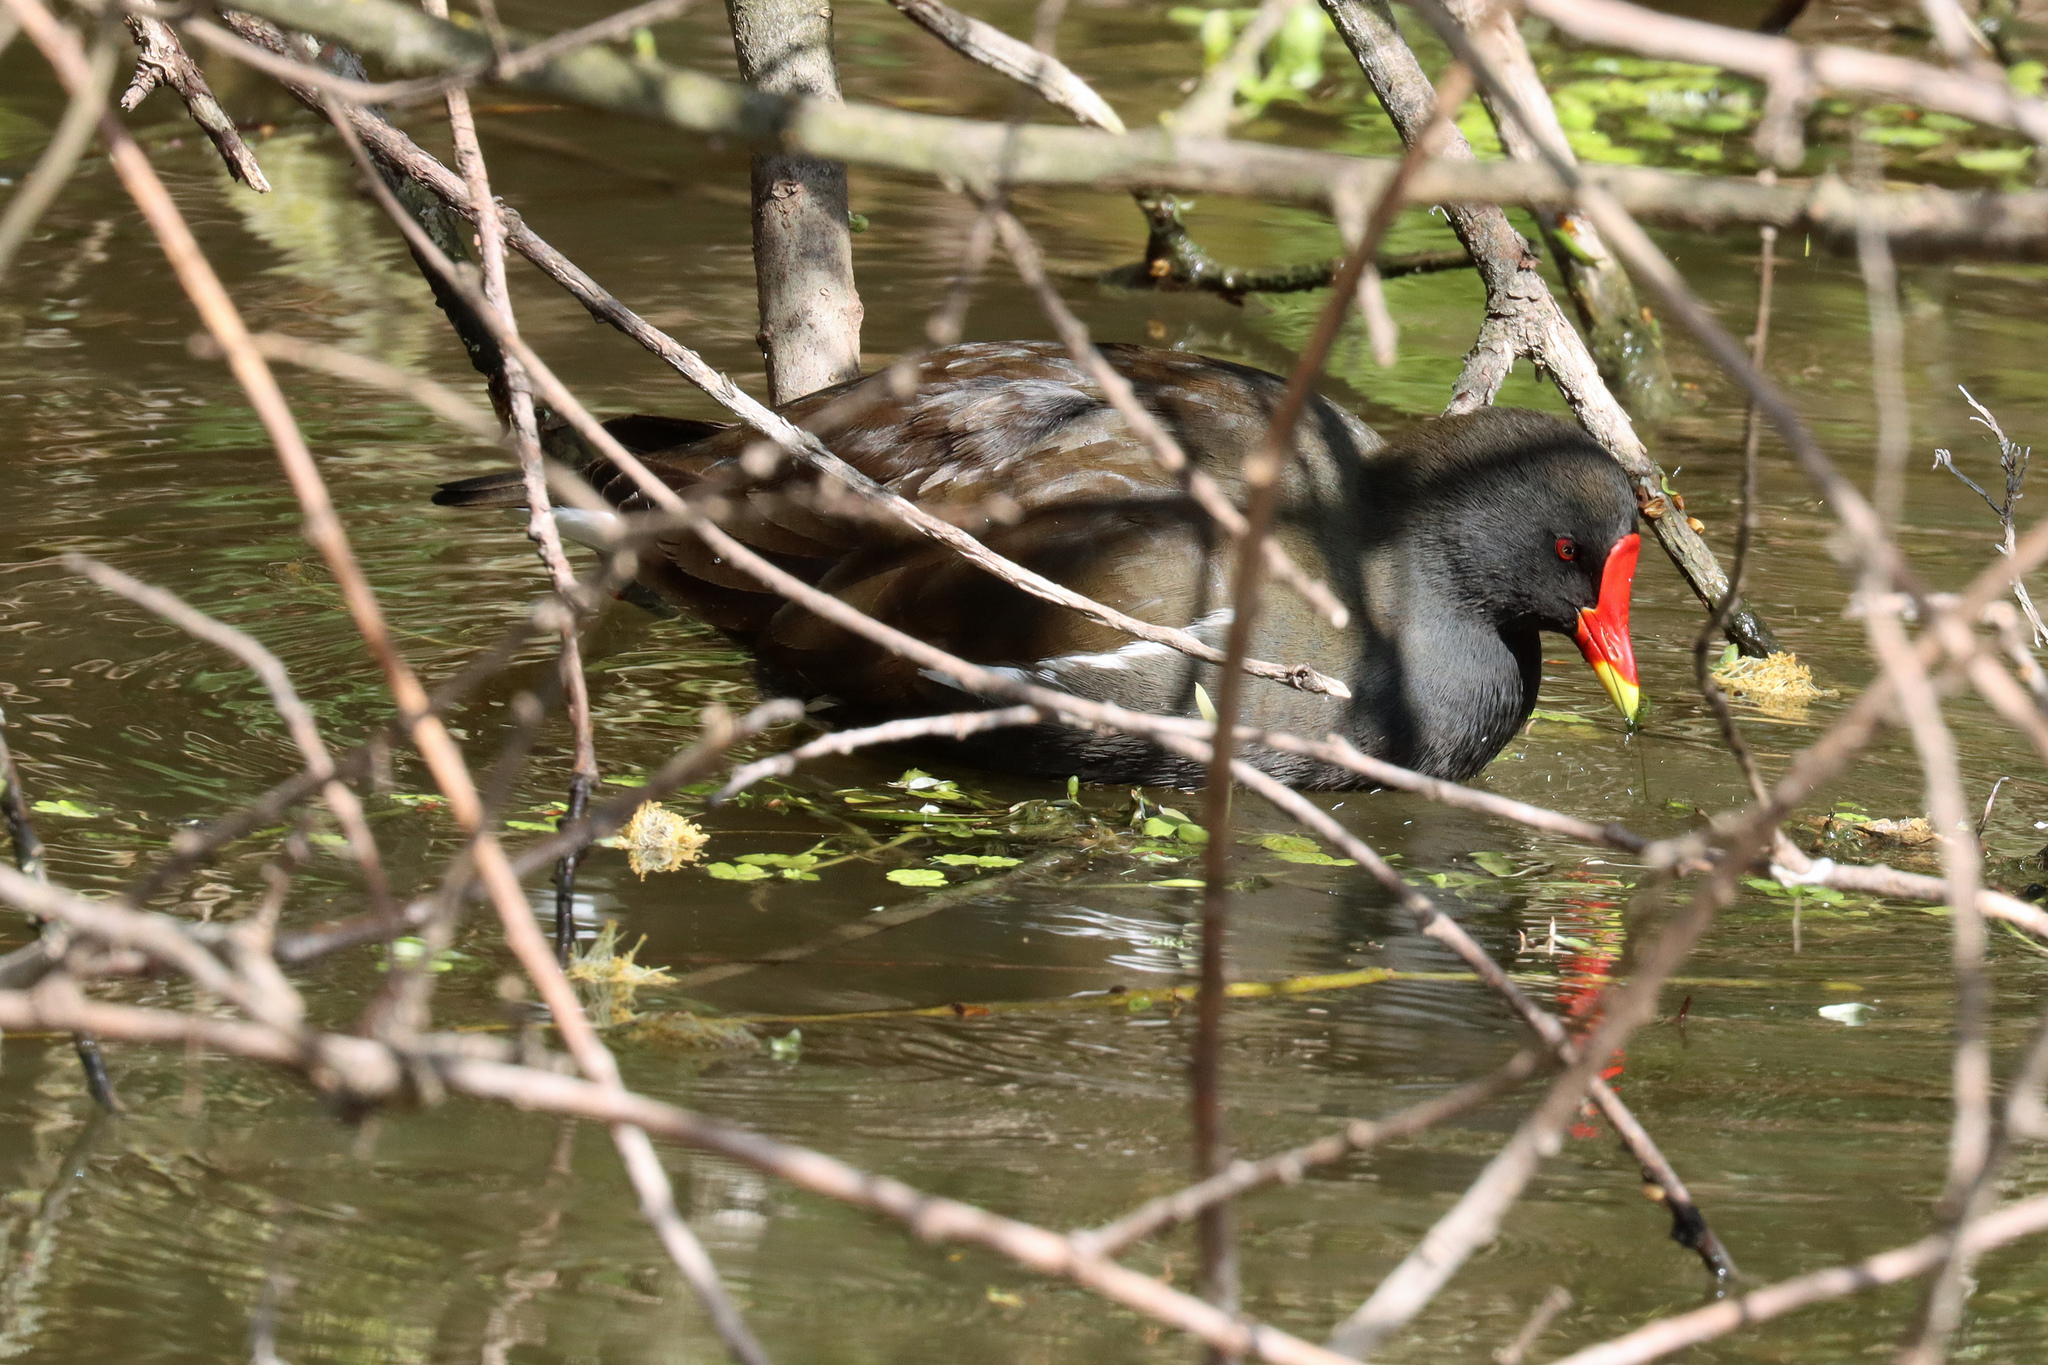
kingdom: Animalia
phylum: Chordata
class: Aves
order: Gruiformes
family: Rallidae
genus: Gallinula
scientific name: Gallinula chloropus
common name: Common moorhen
